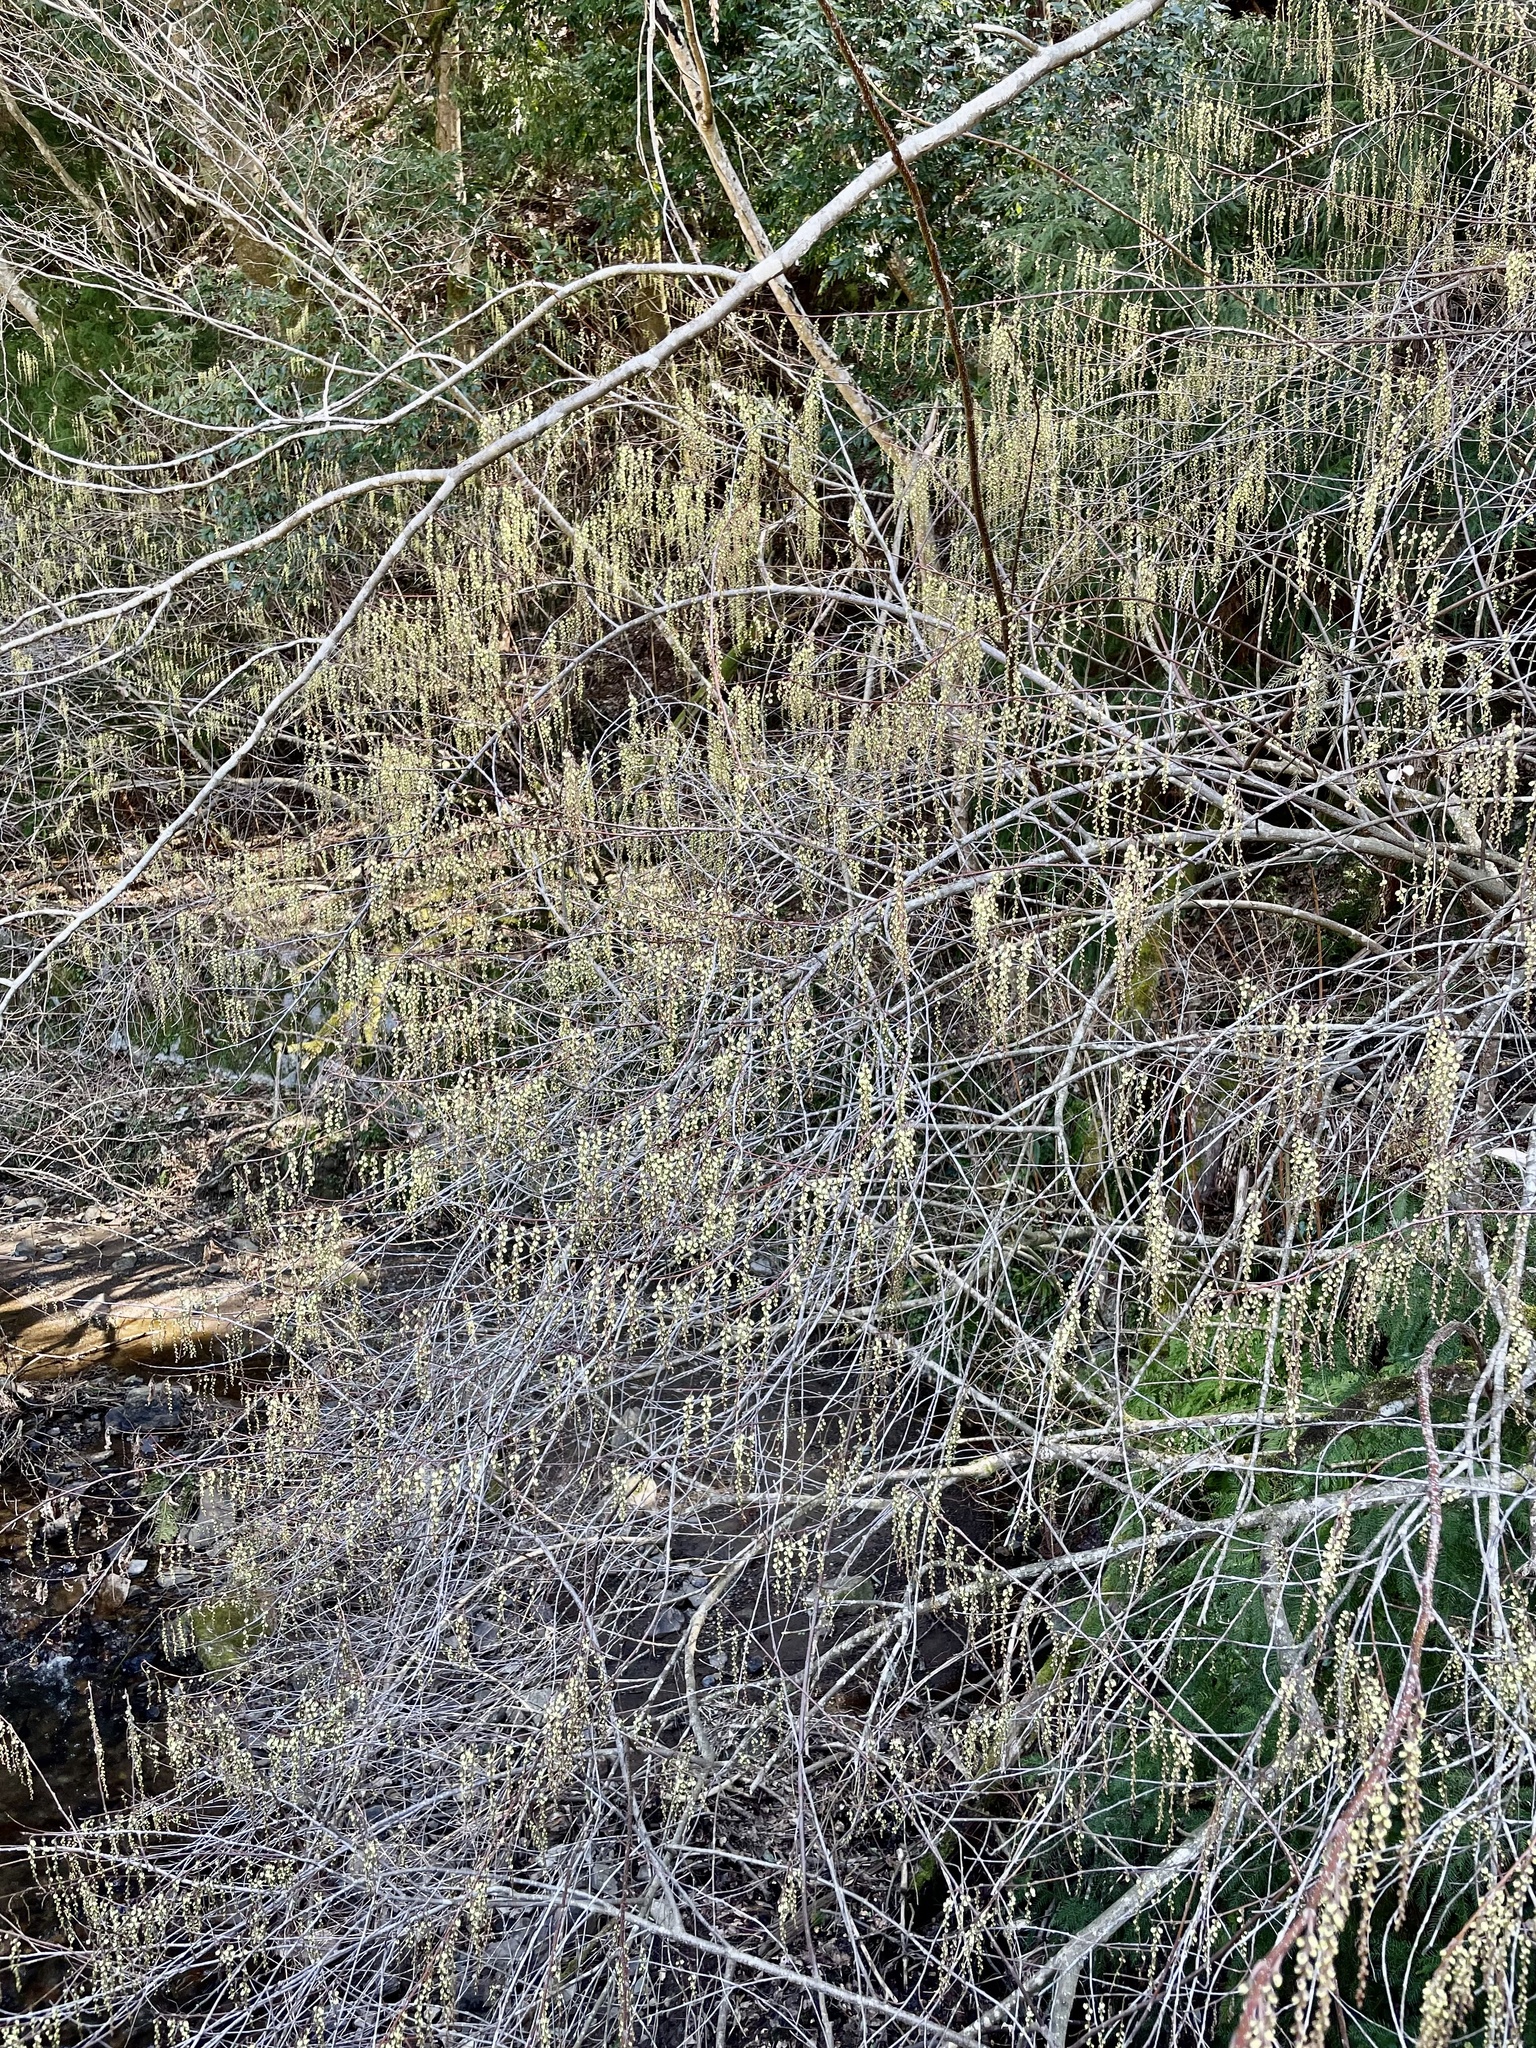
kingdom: Plantae
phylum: Tracheophyta
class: Magnoliopsida
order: Crossosomatales
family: Stachyuraceae
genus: Stachyurus
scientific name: Stachyurus praecox
